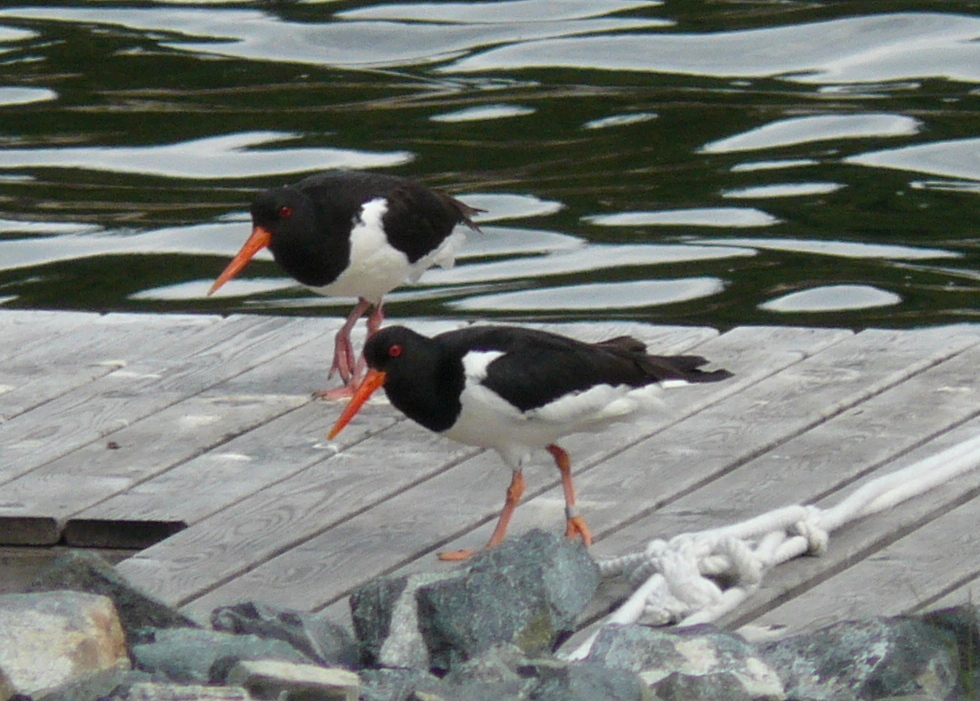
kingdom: Animalia
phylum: Chordata
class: Aves
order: Charadriiformes
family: Haematopodidae
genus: Haematopus
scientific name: Haematopus ostralegus
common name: Eurasian oystercatcher
